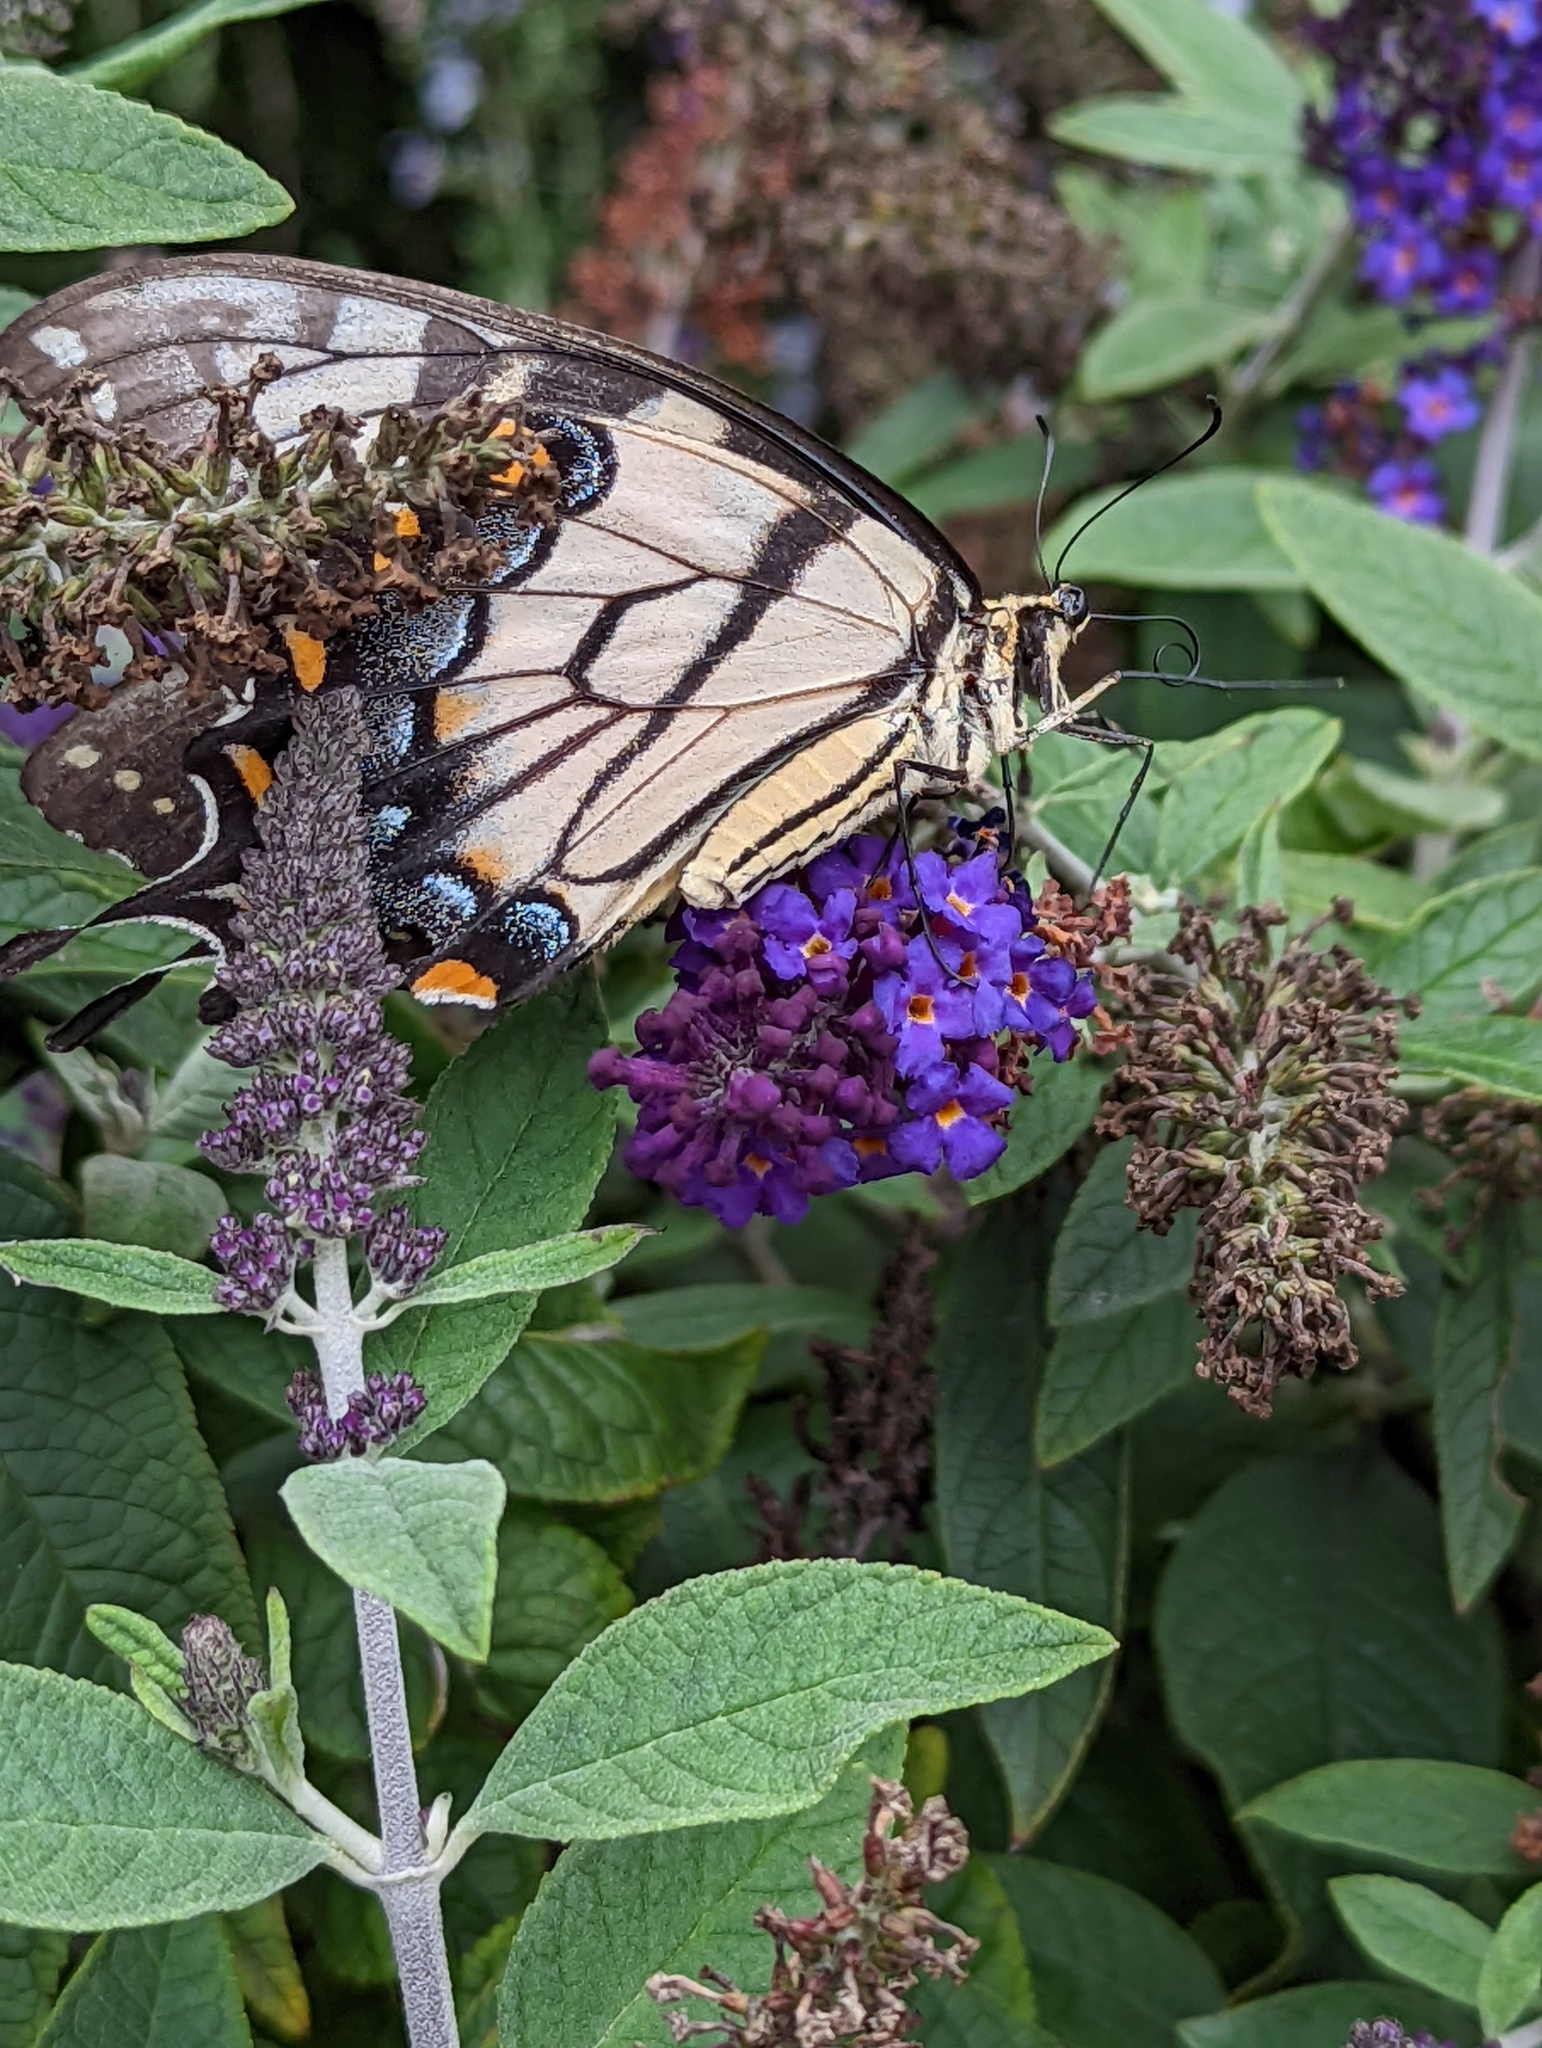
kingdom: Animalia
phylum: Arthropoda
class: Insecta
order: Lepidoptera
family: Papilionidae
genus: Papilio
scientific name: Papilio glaucus
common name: Tiger swallowtail
